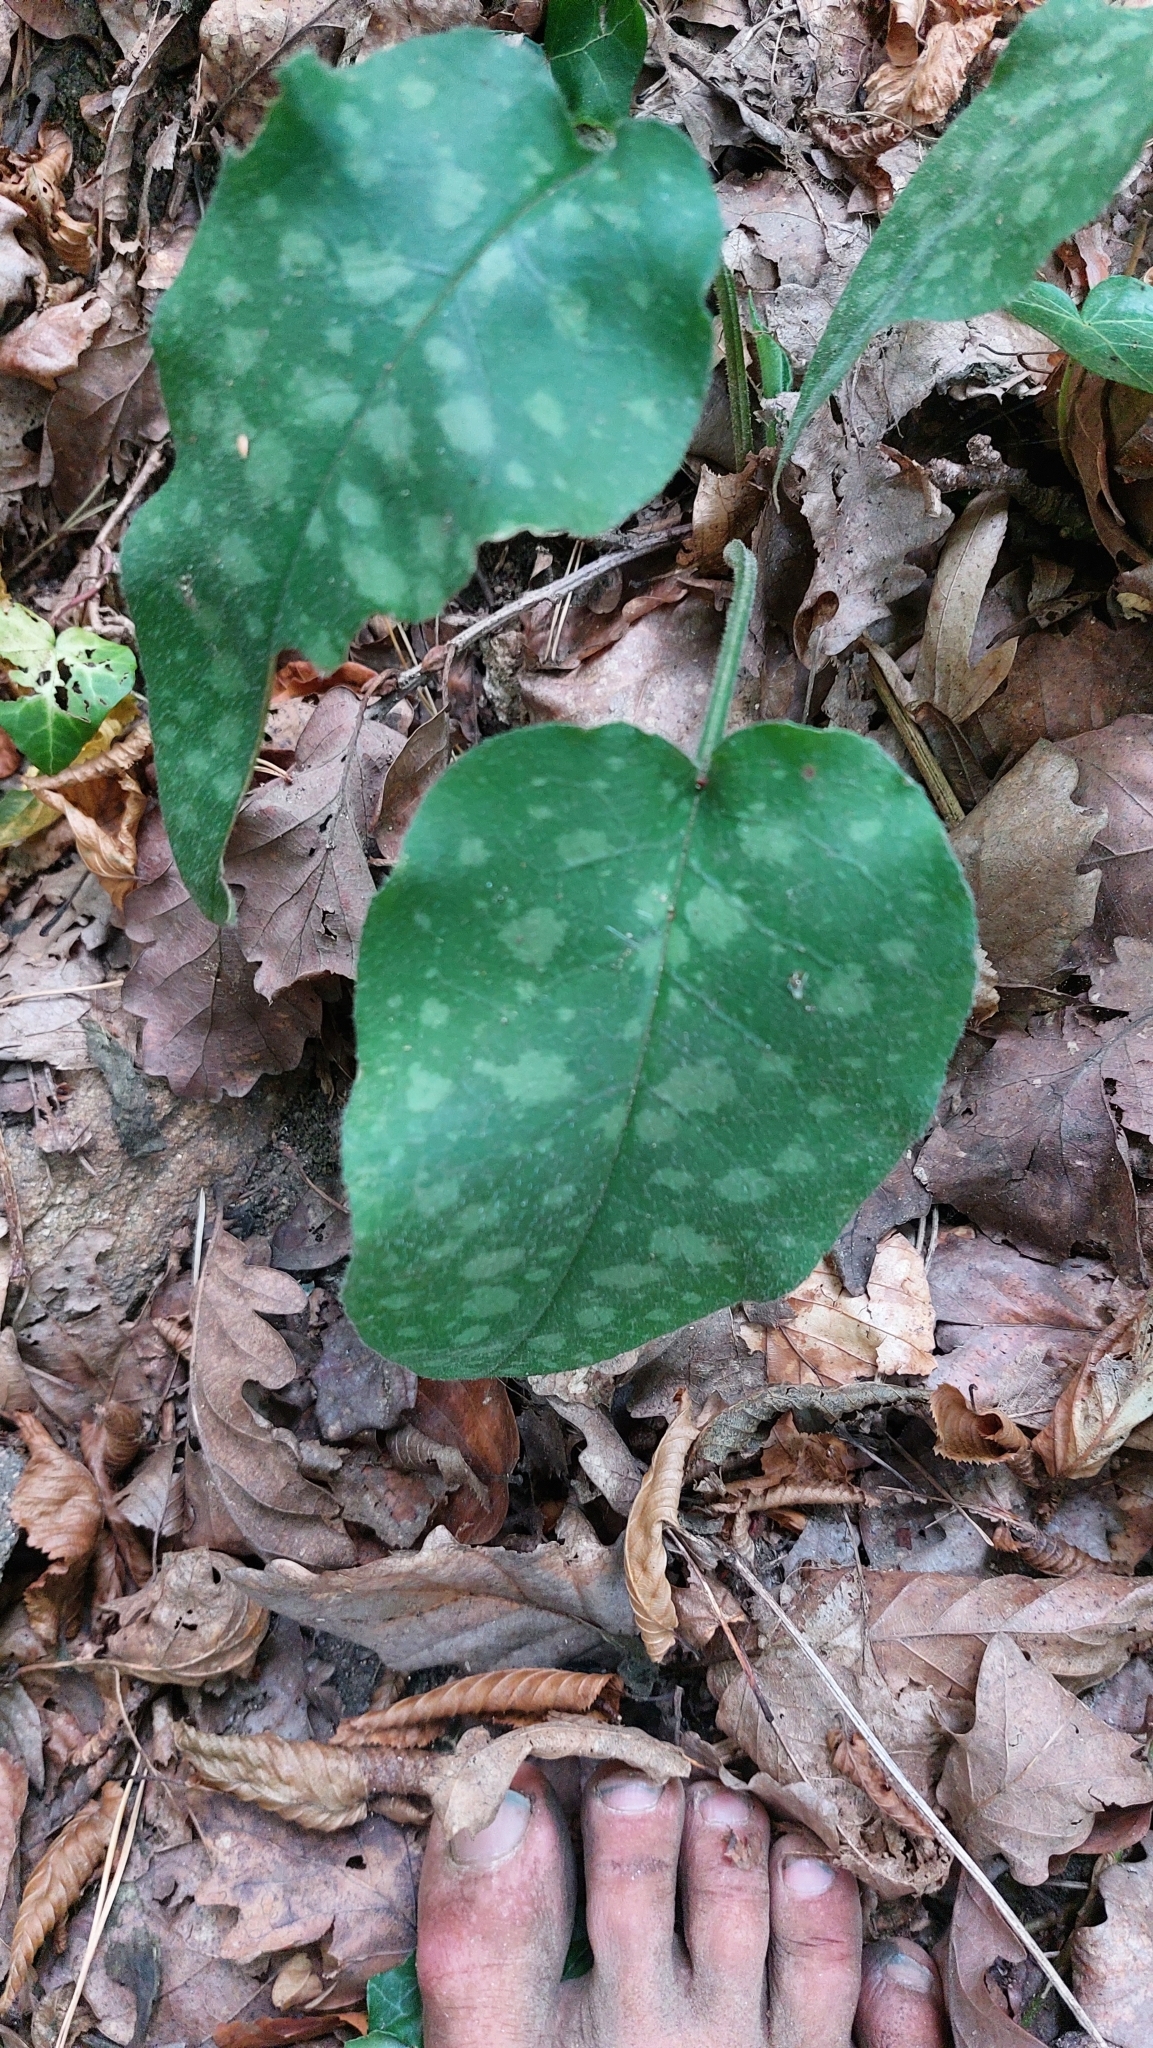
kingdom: Plantae
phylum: Tracheophyta
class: Magnoliopsida
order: Boraginales
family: Boraginaceae
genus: Pulmonaria
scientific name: Pulmonaria officinalis
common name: Lungwort
